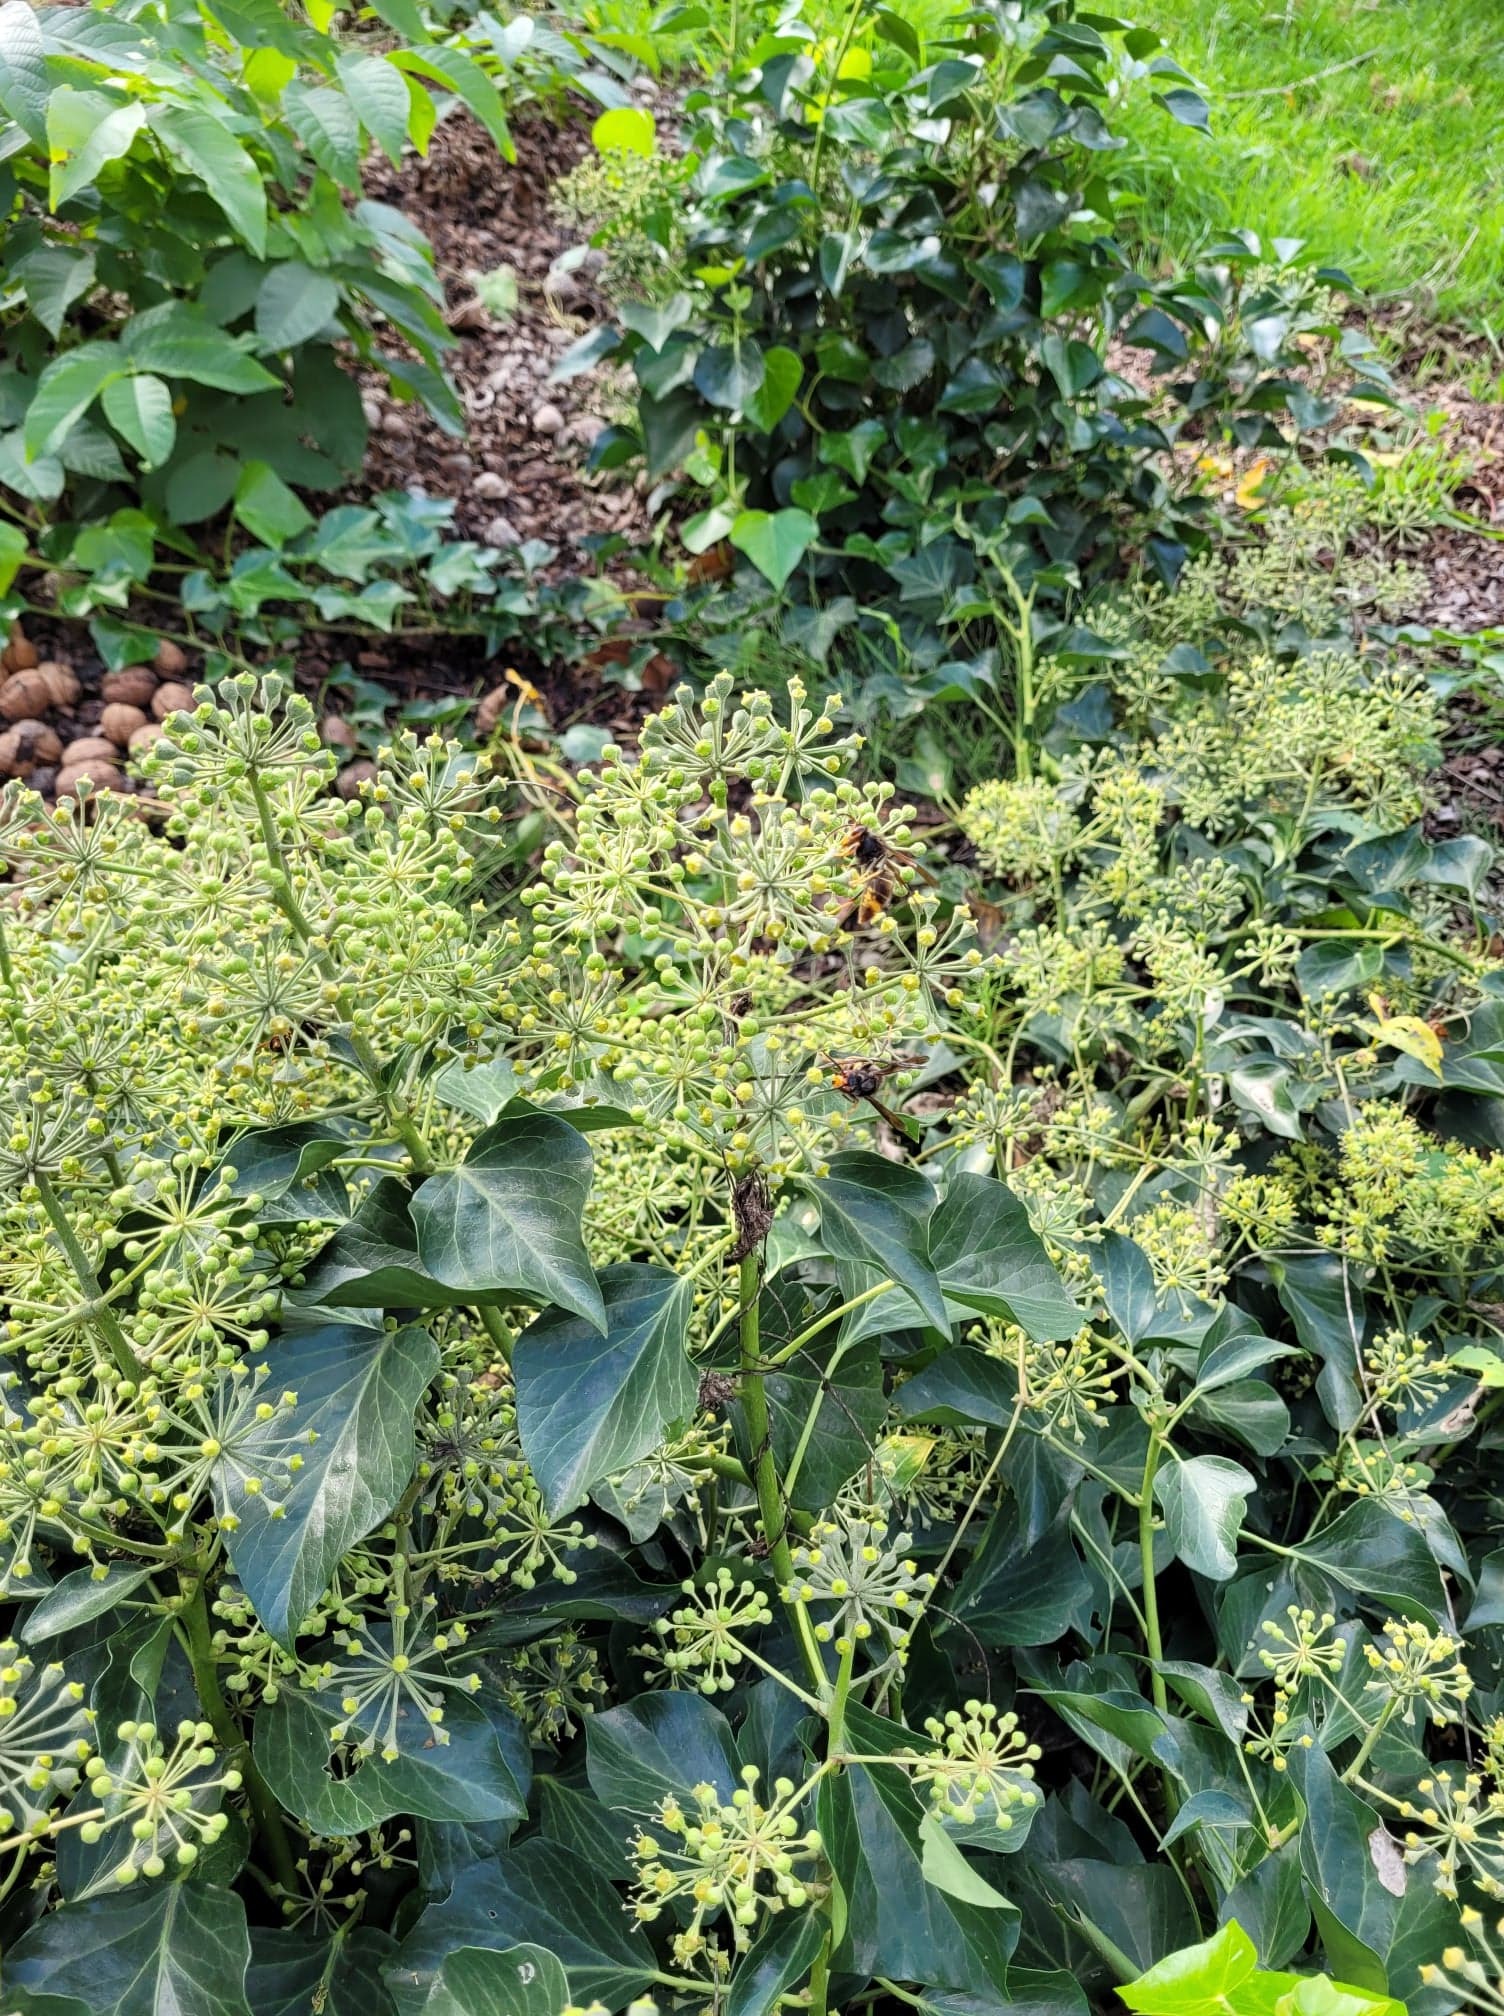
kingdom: Animalia
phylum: Arthropoda
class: Insecta
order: Hymenoptera
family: Vespidae
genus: Vespa
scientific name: Vespa velutina
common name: Asian hornet
